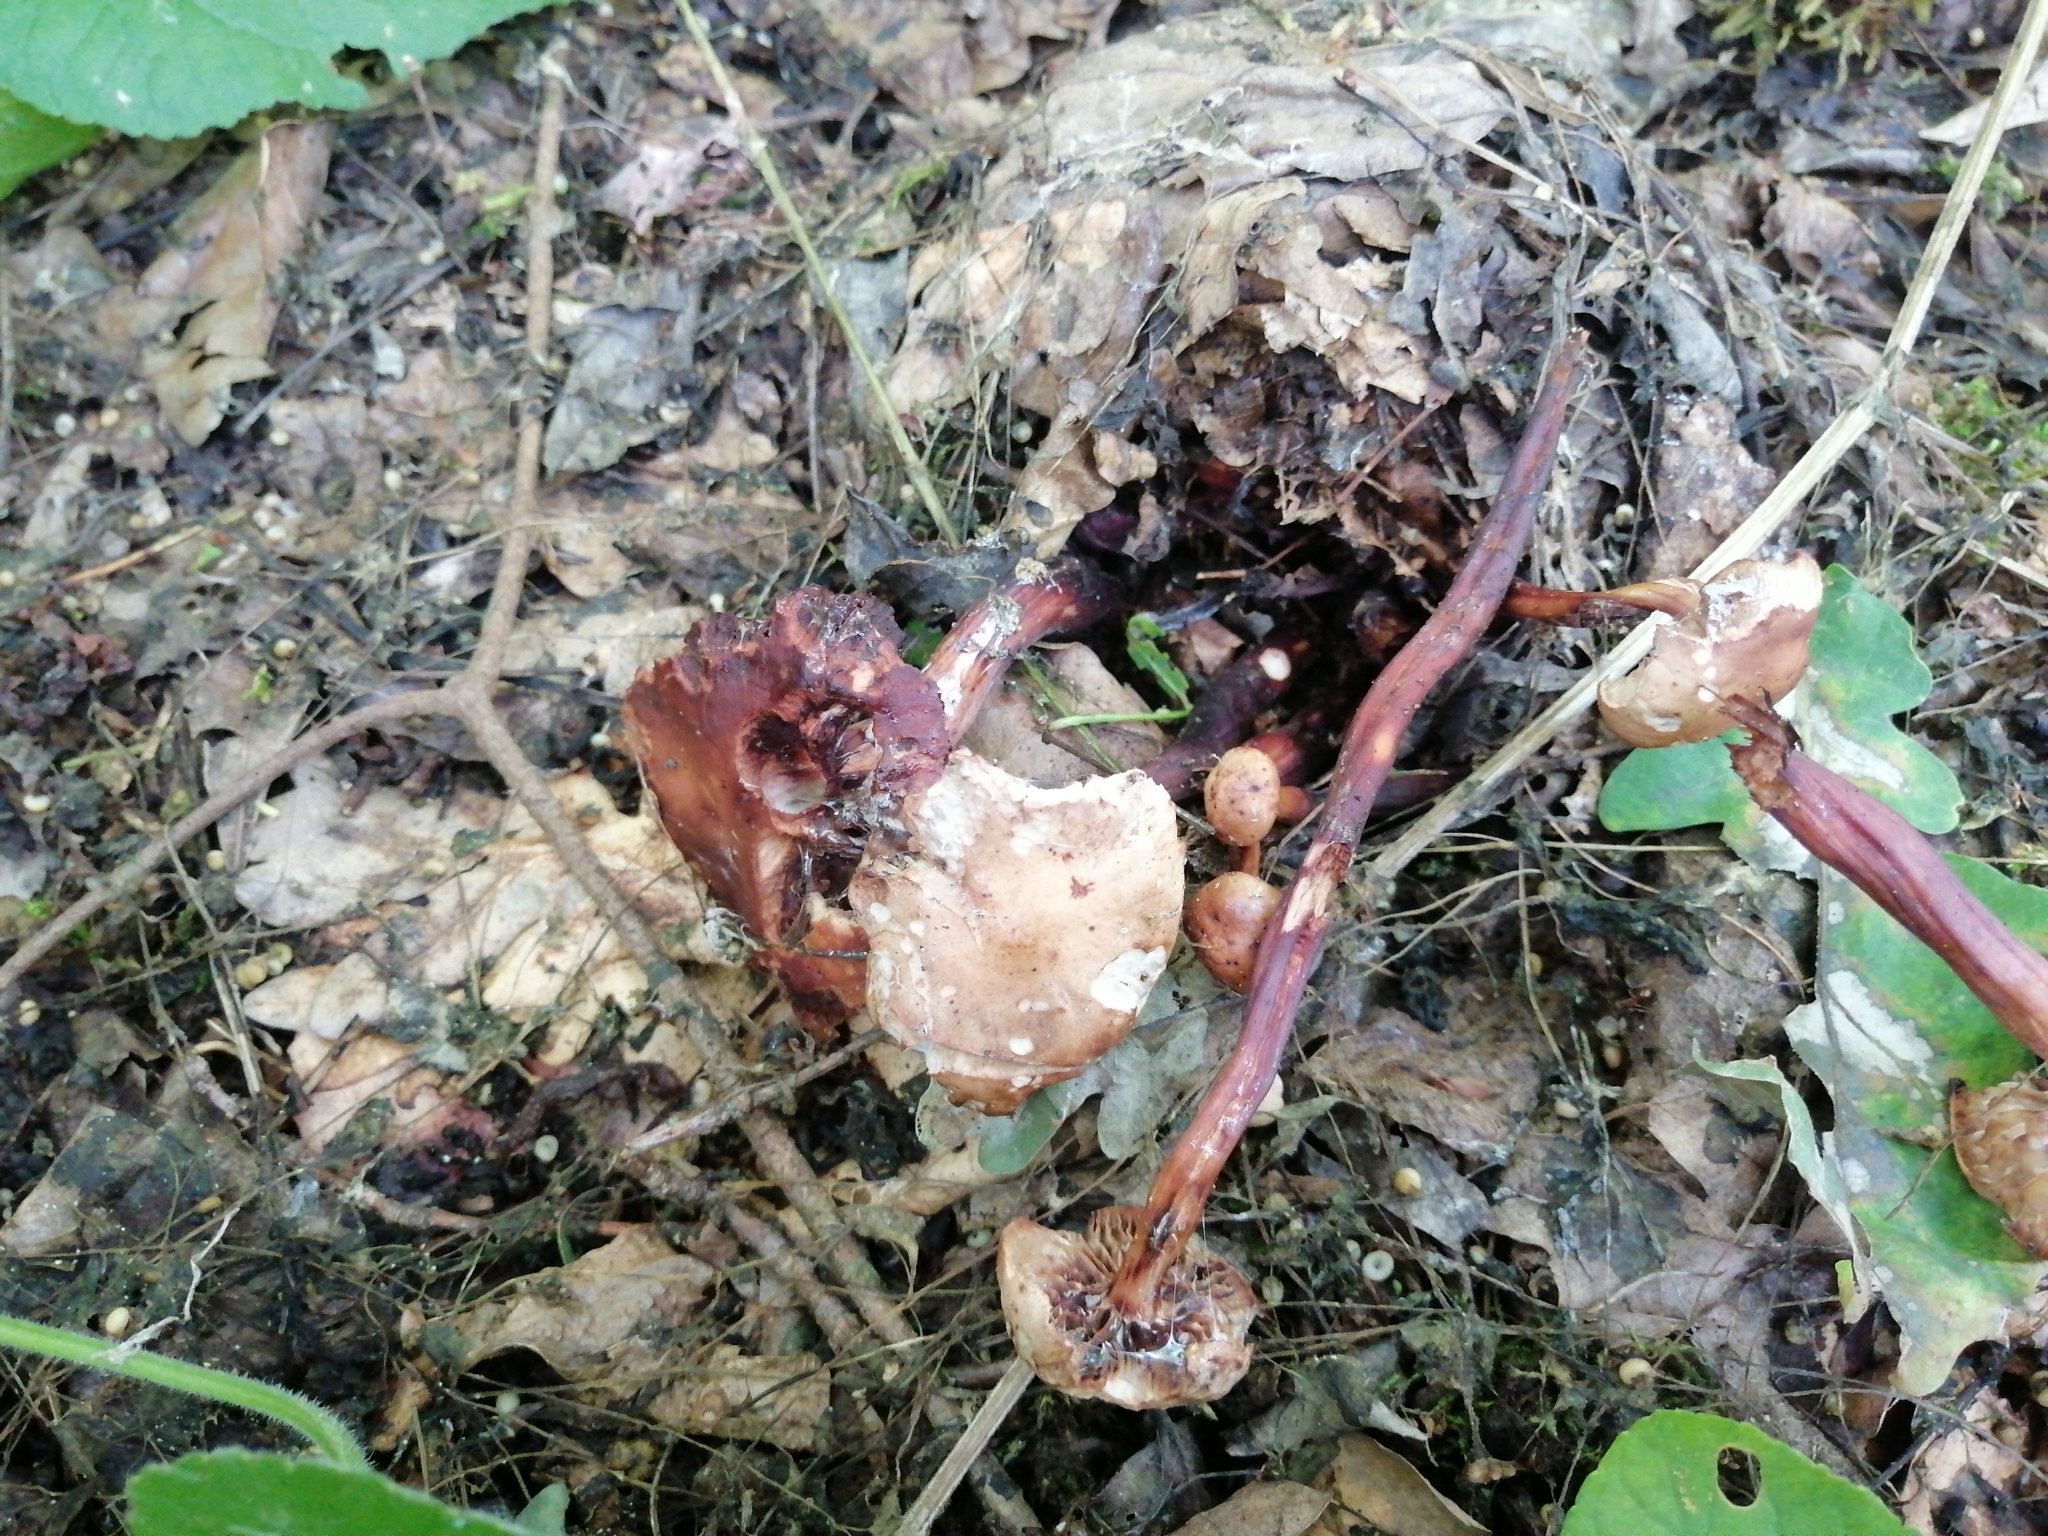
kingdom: Fungi
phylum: Basidiomycota
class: Agaricomycetes
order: Agaricales
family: Omphalotaceae
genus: Gymnopus
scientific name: Gymnopus fusipes
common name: Spindle shank
